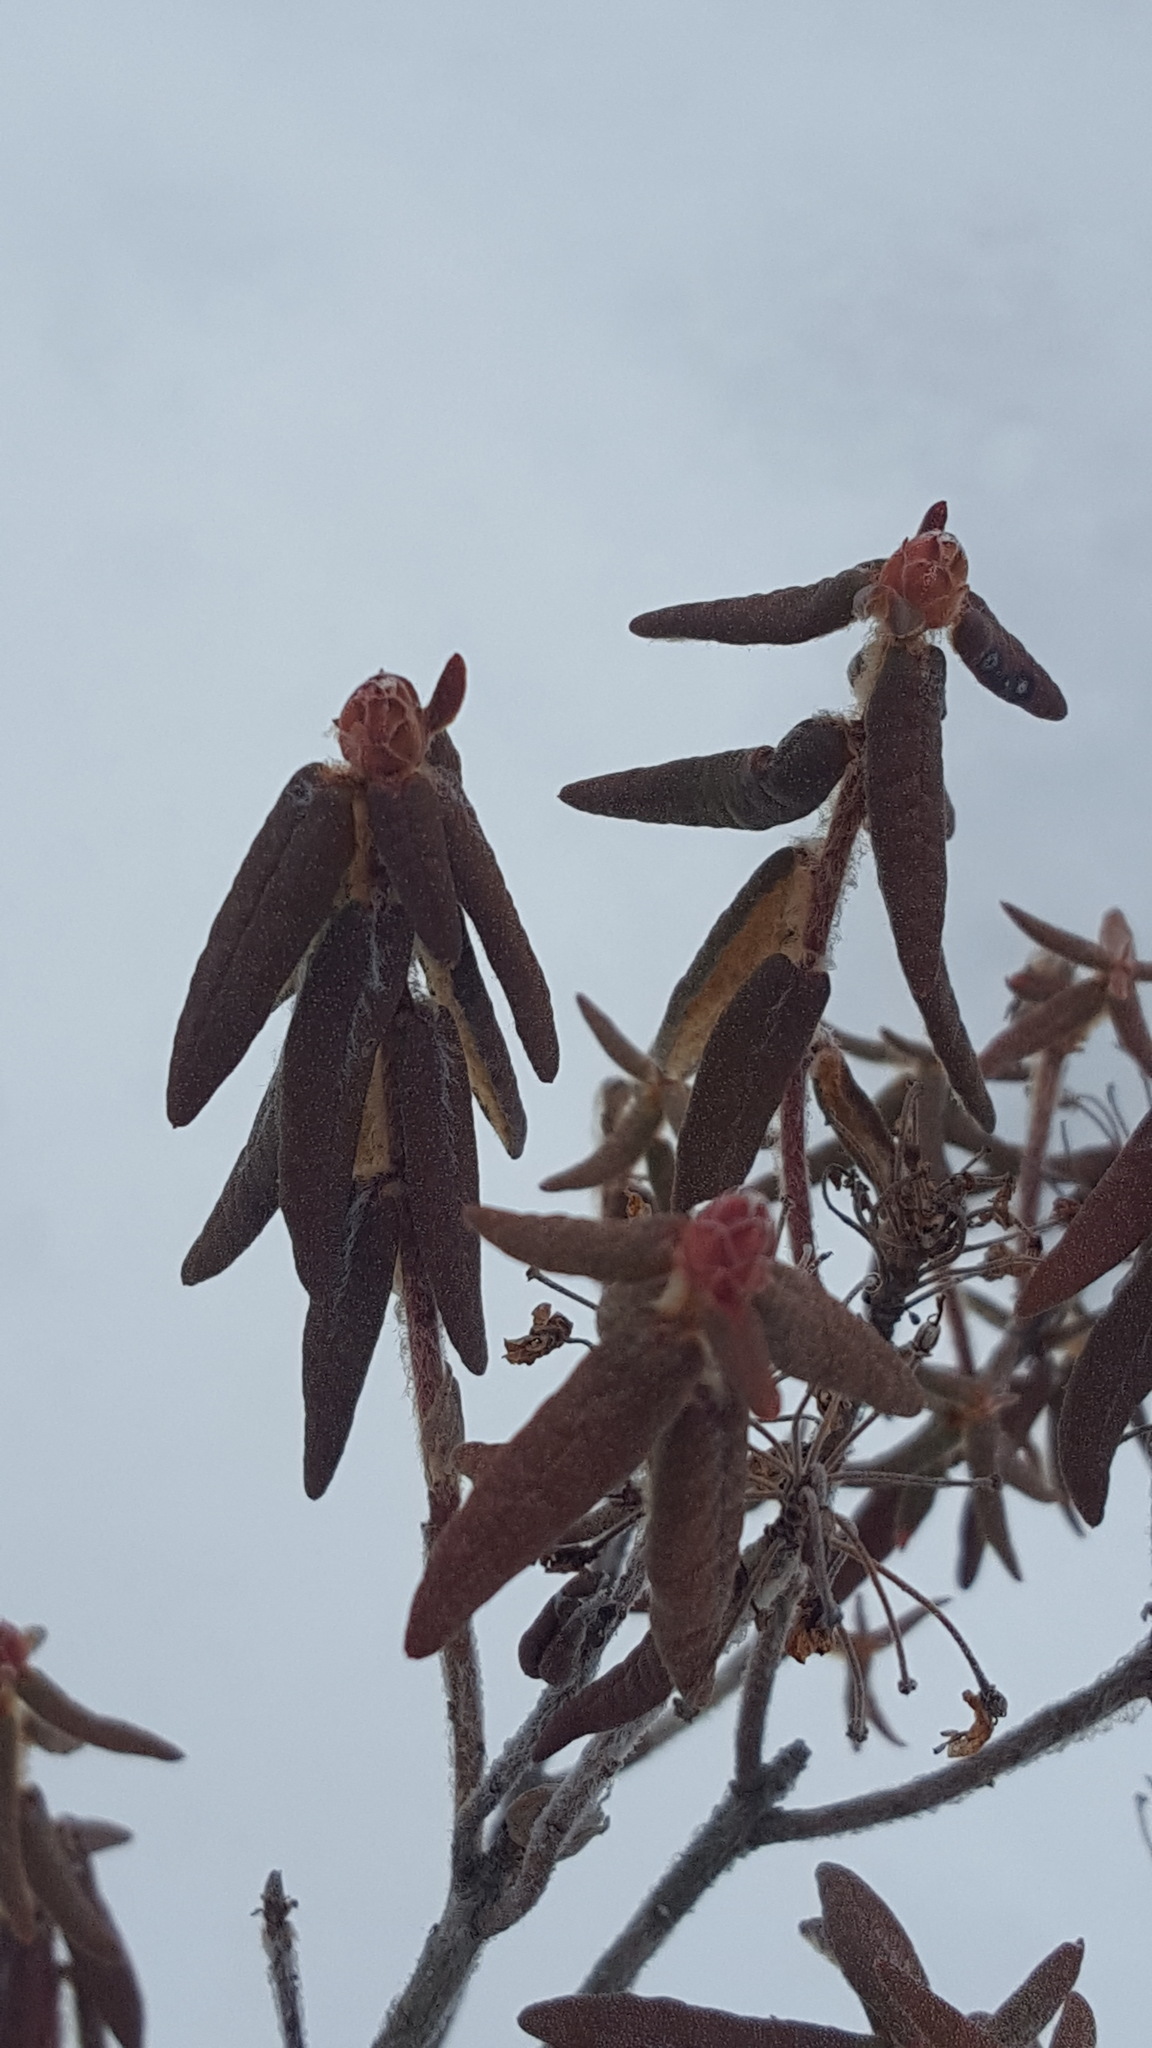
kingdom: Plantae
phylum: Tracheophyta
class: Magnoliopsida
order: Ericales
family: Ericaceae
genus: Rhododendron
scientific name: Rhododendron groenlandicum
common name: Bog labrador tea
